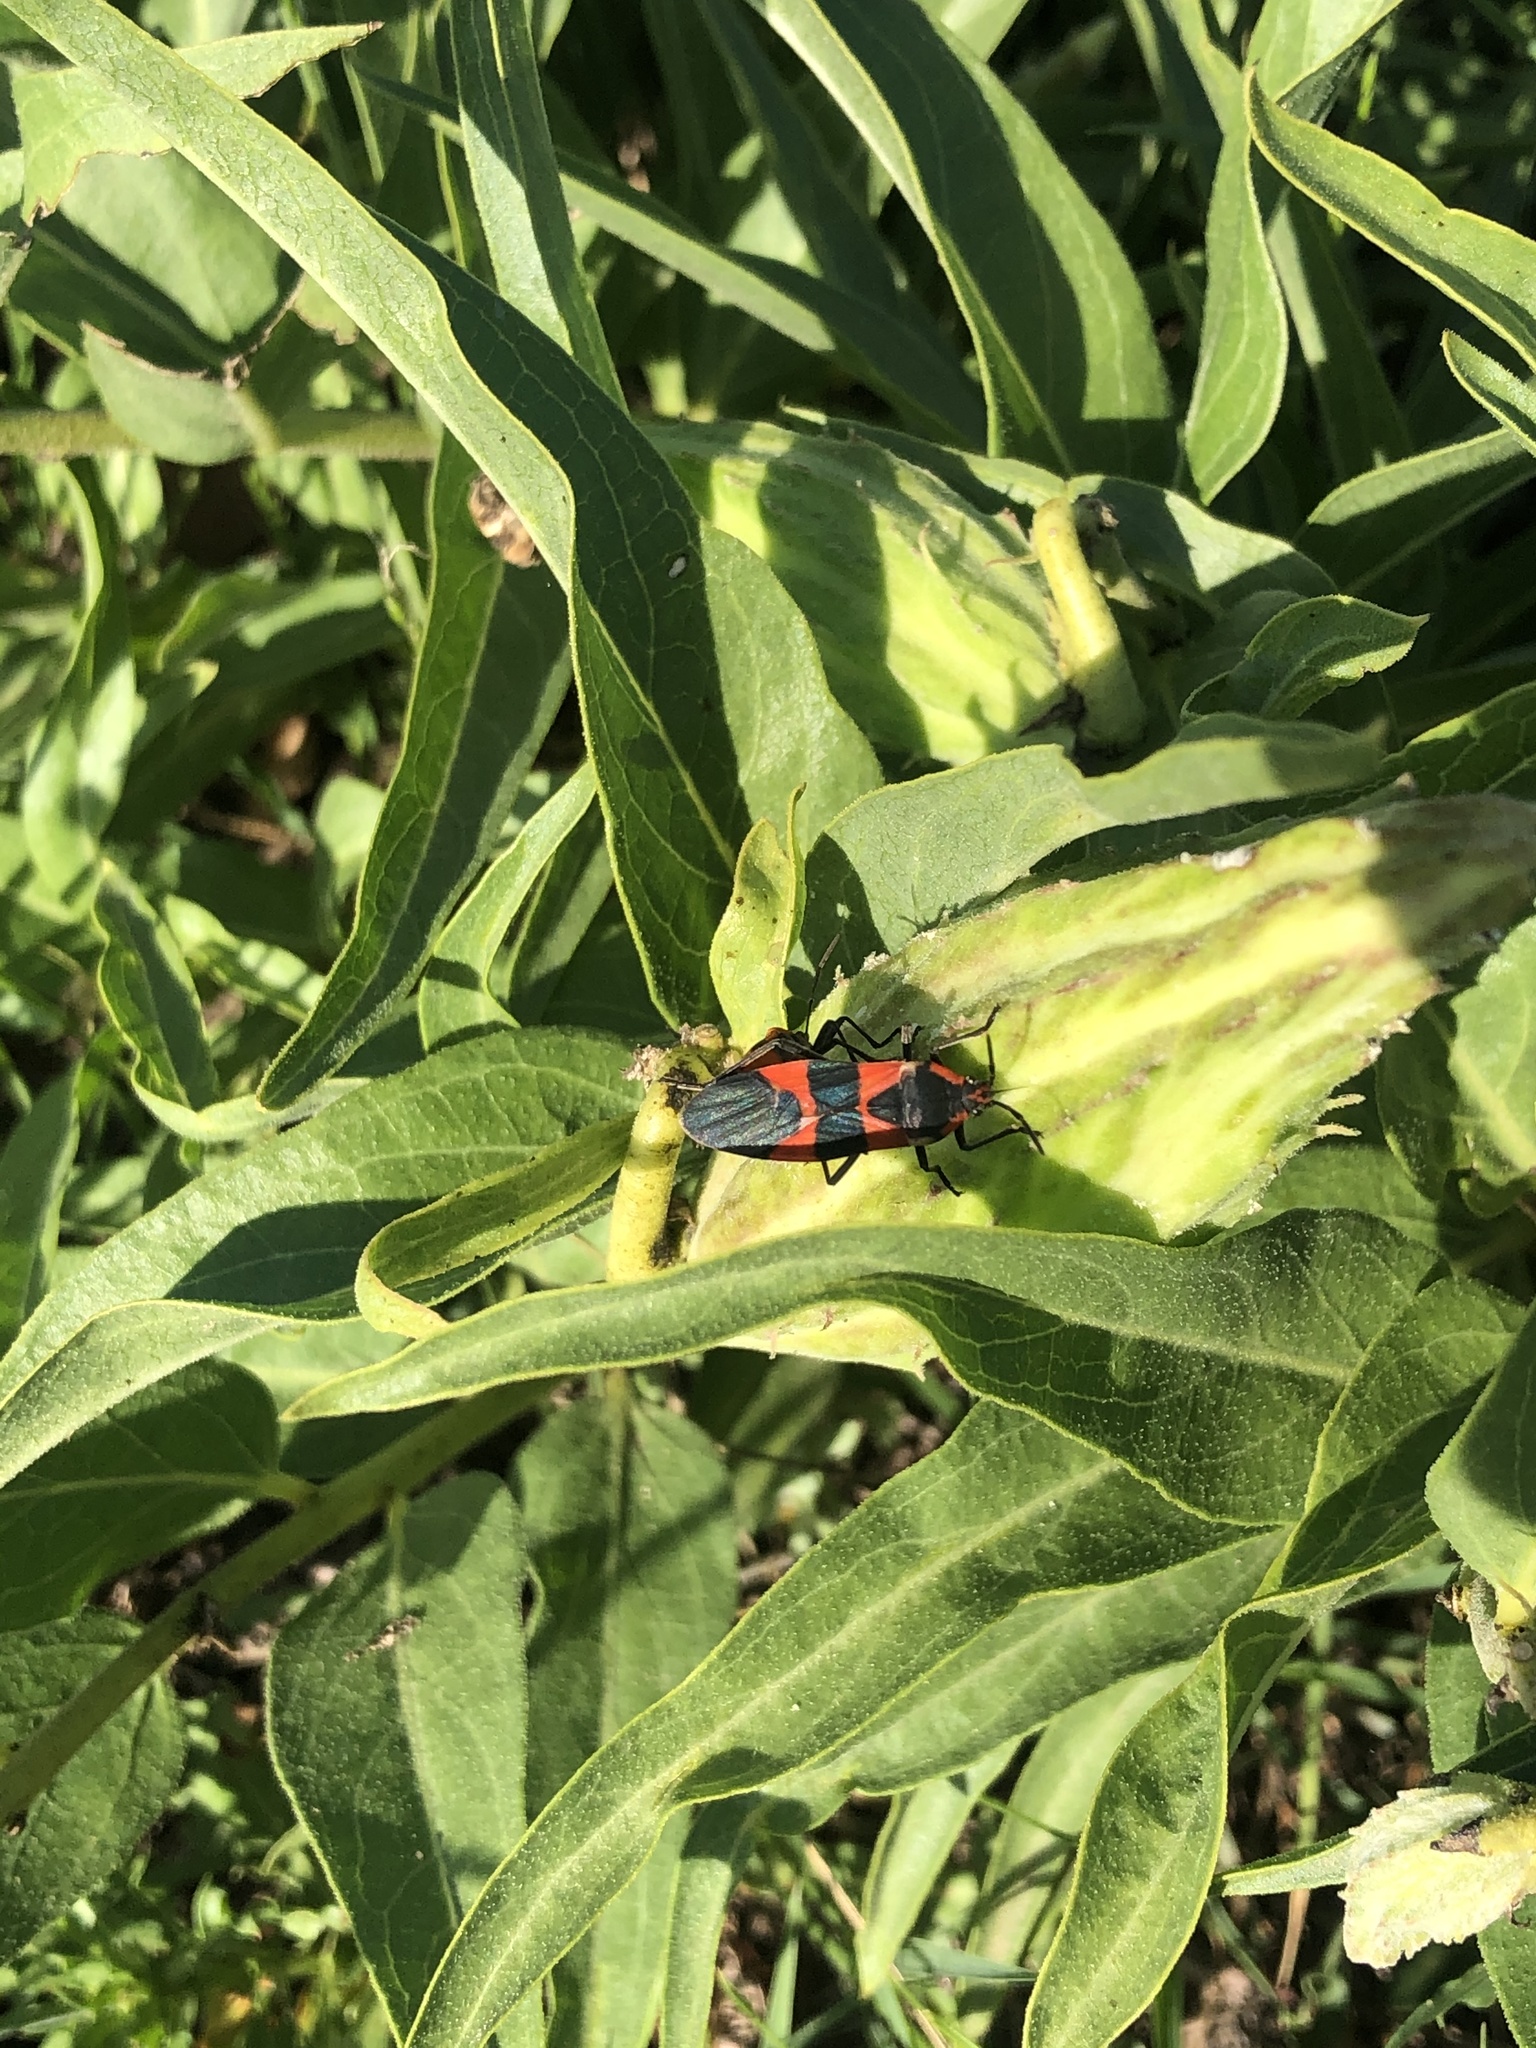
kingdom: Animalia
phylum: Arthropoda
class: Insecta
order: Hemiptera
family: Lygaeidae
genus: Oncopeltus
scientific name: Oncopeltus fasciatus
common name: Large milkweed bug
